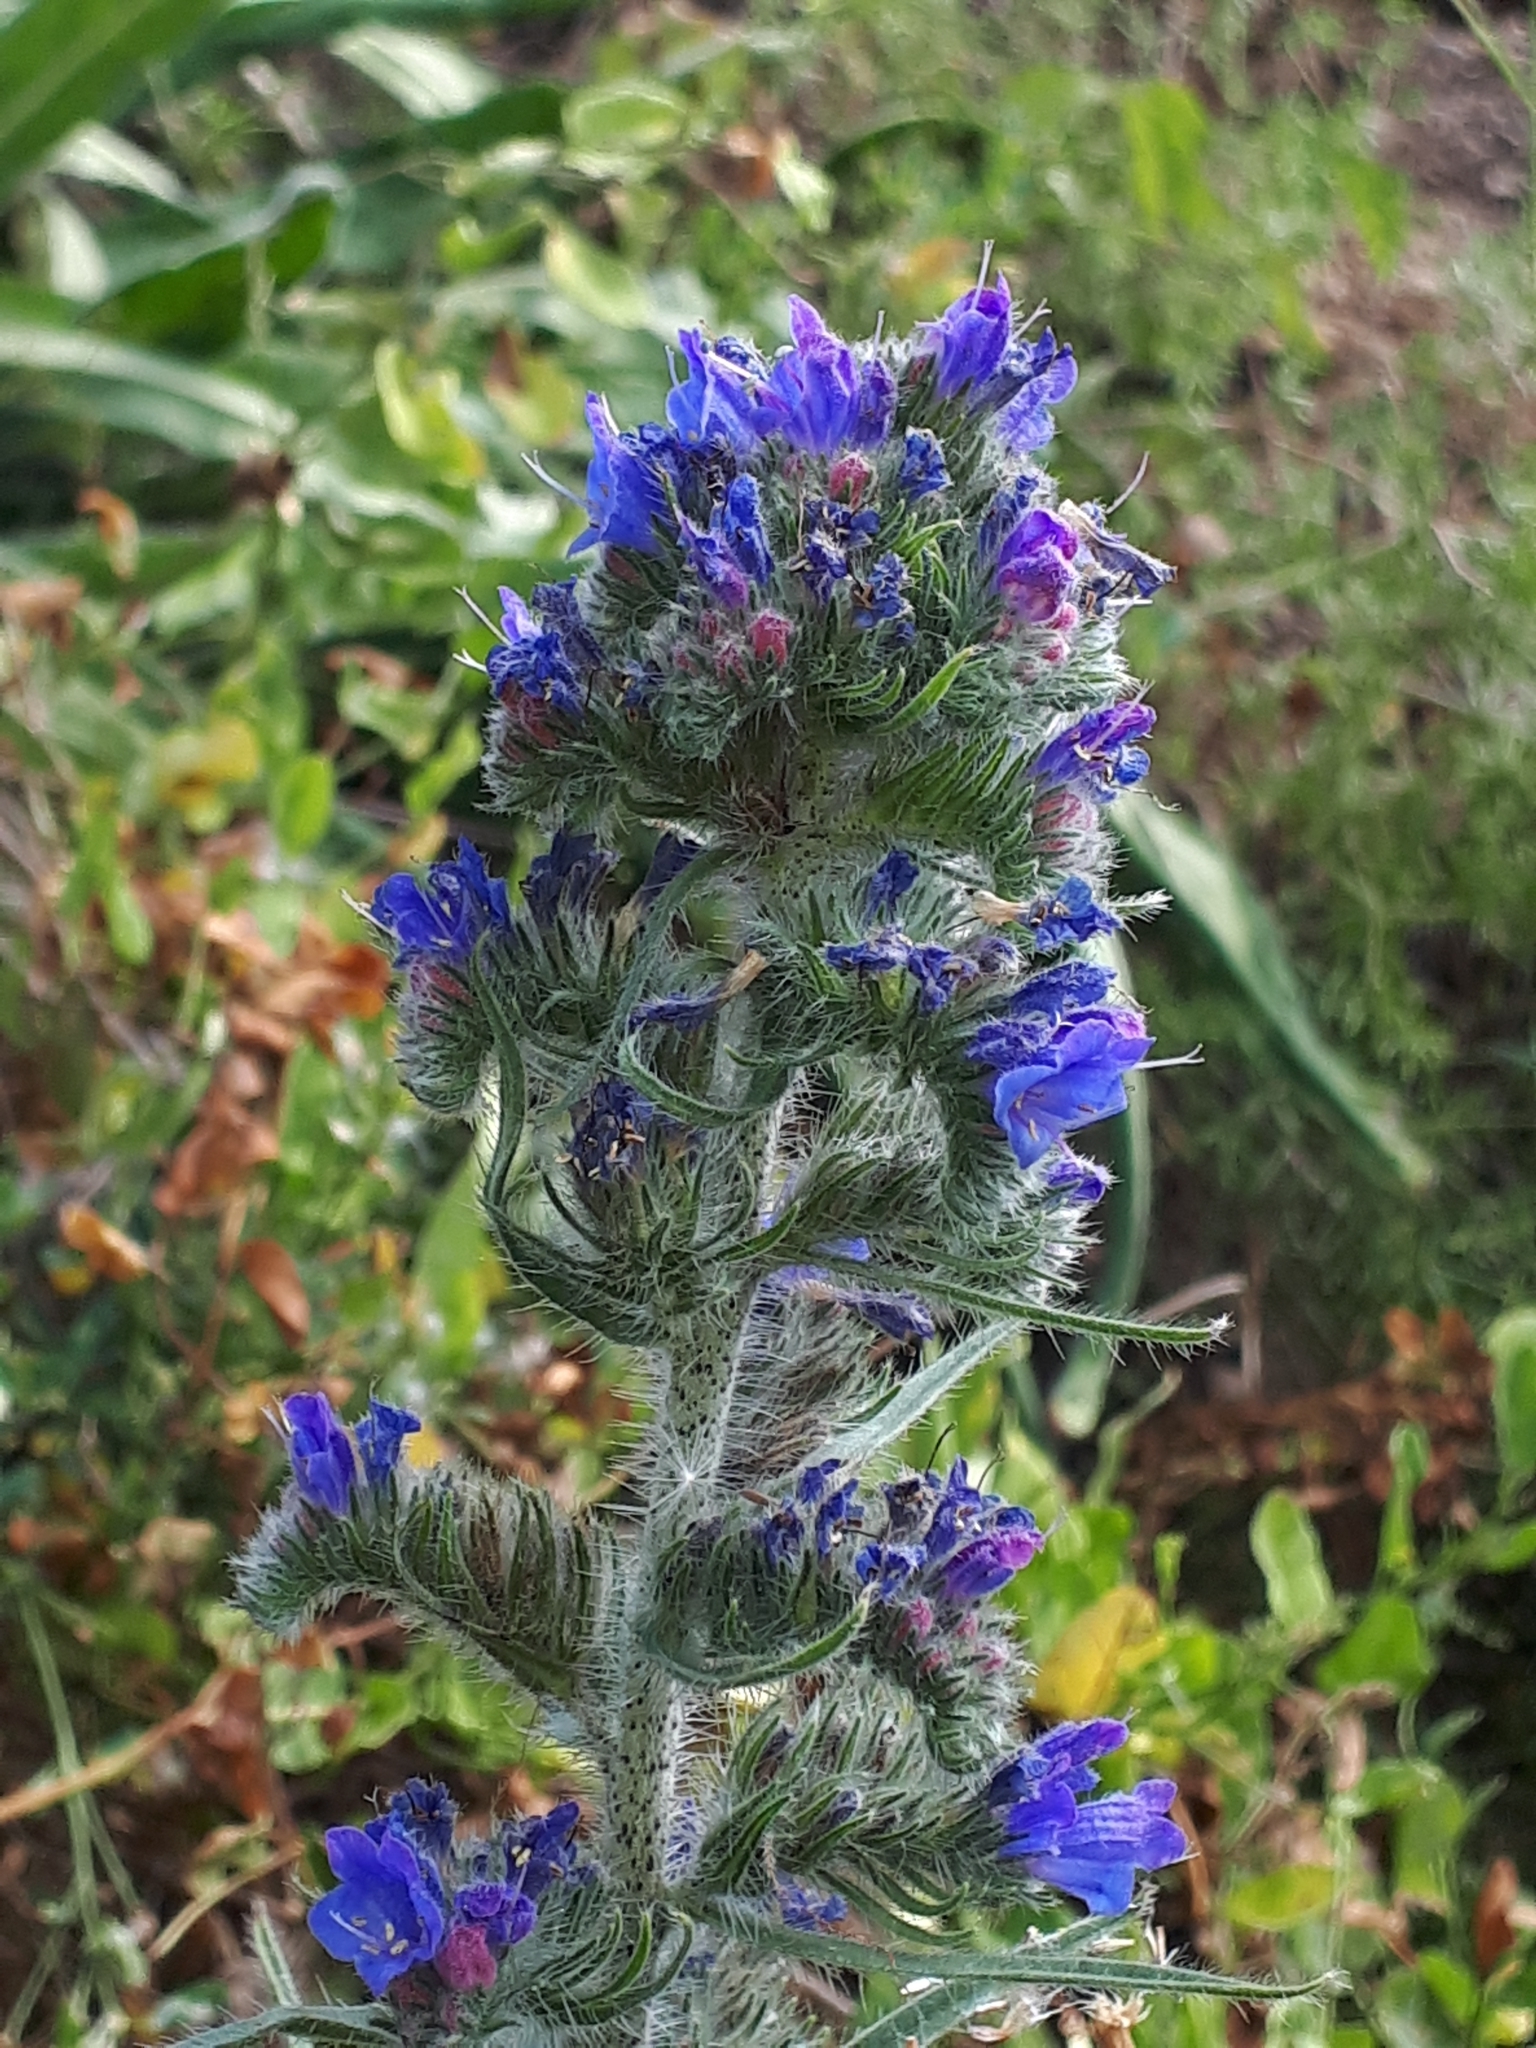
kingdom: Plantae
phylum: Tracheophyta
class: Magnoliopsida
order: Boraginales
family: Boraginaceae
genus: Echium
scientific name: Echium vulgare
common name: Common viper's bugloss
